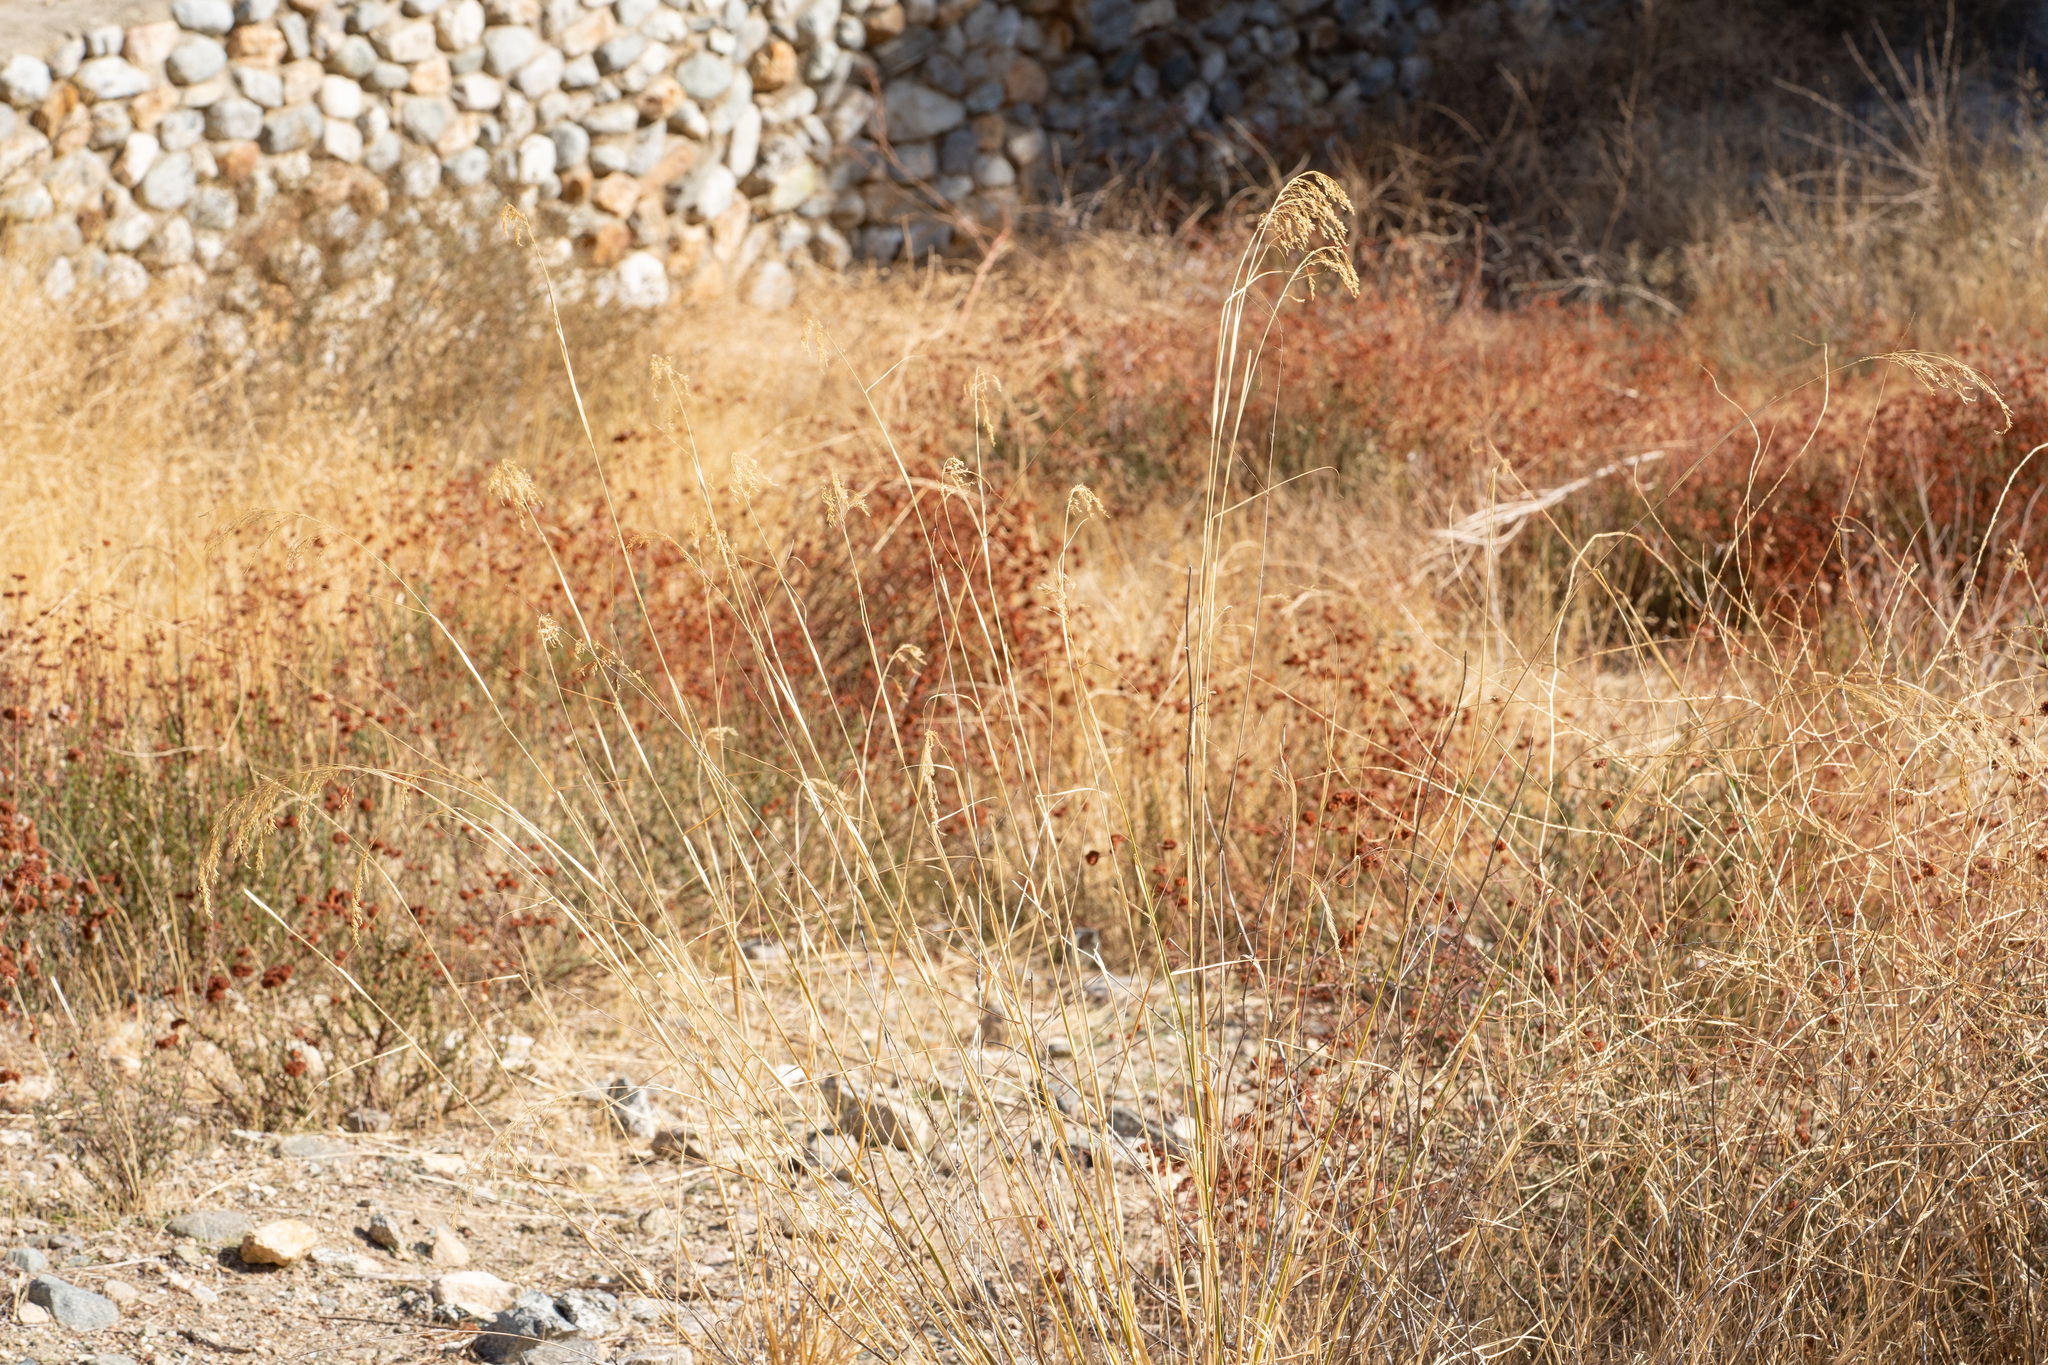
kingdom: Plantae
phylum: Tracheophyta
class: Liliopsida
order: Poales
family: Poaceae
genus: Oloptum
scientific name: Oloptum miliaceum
